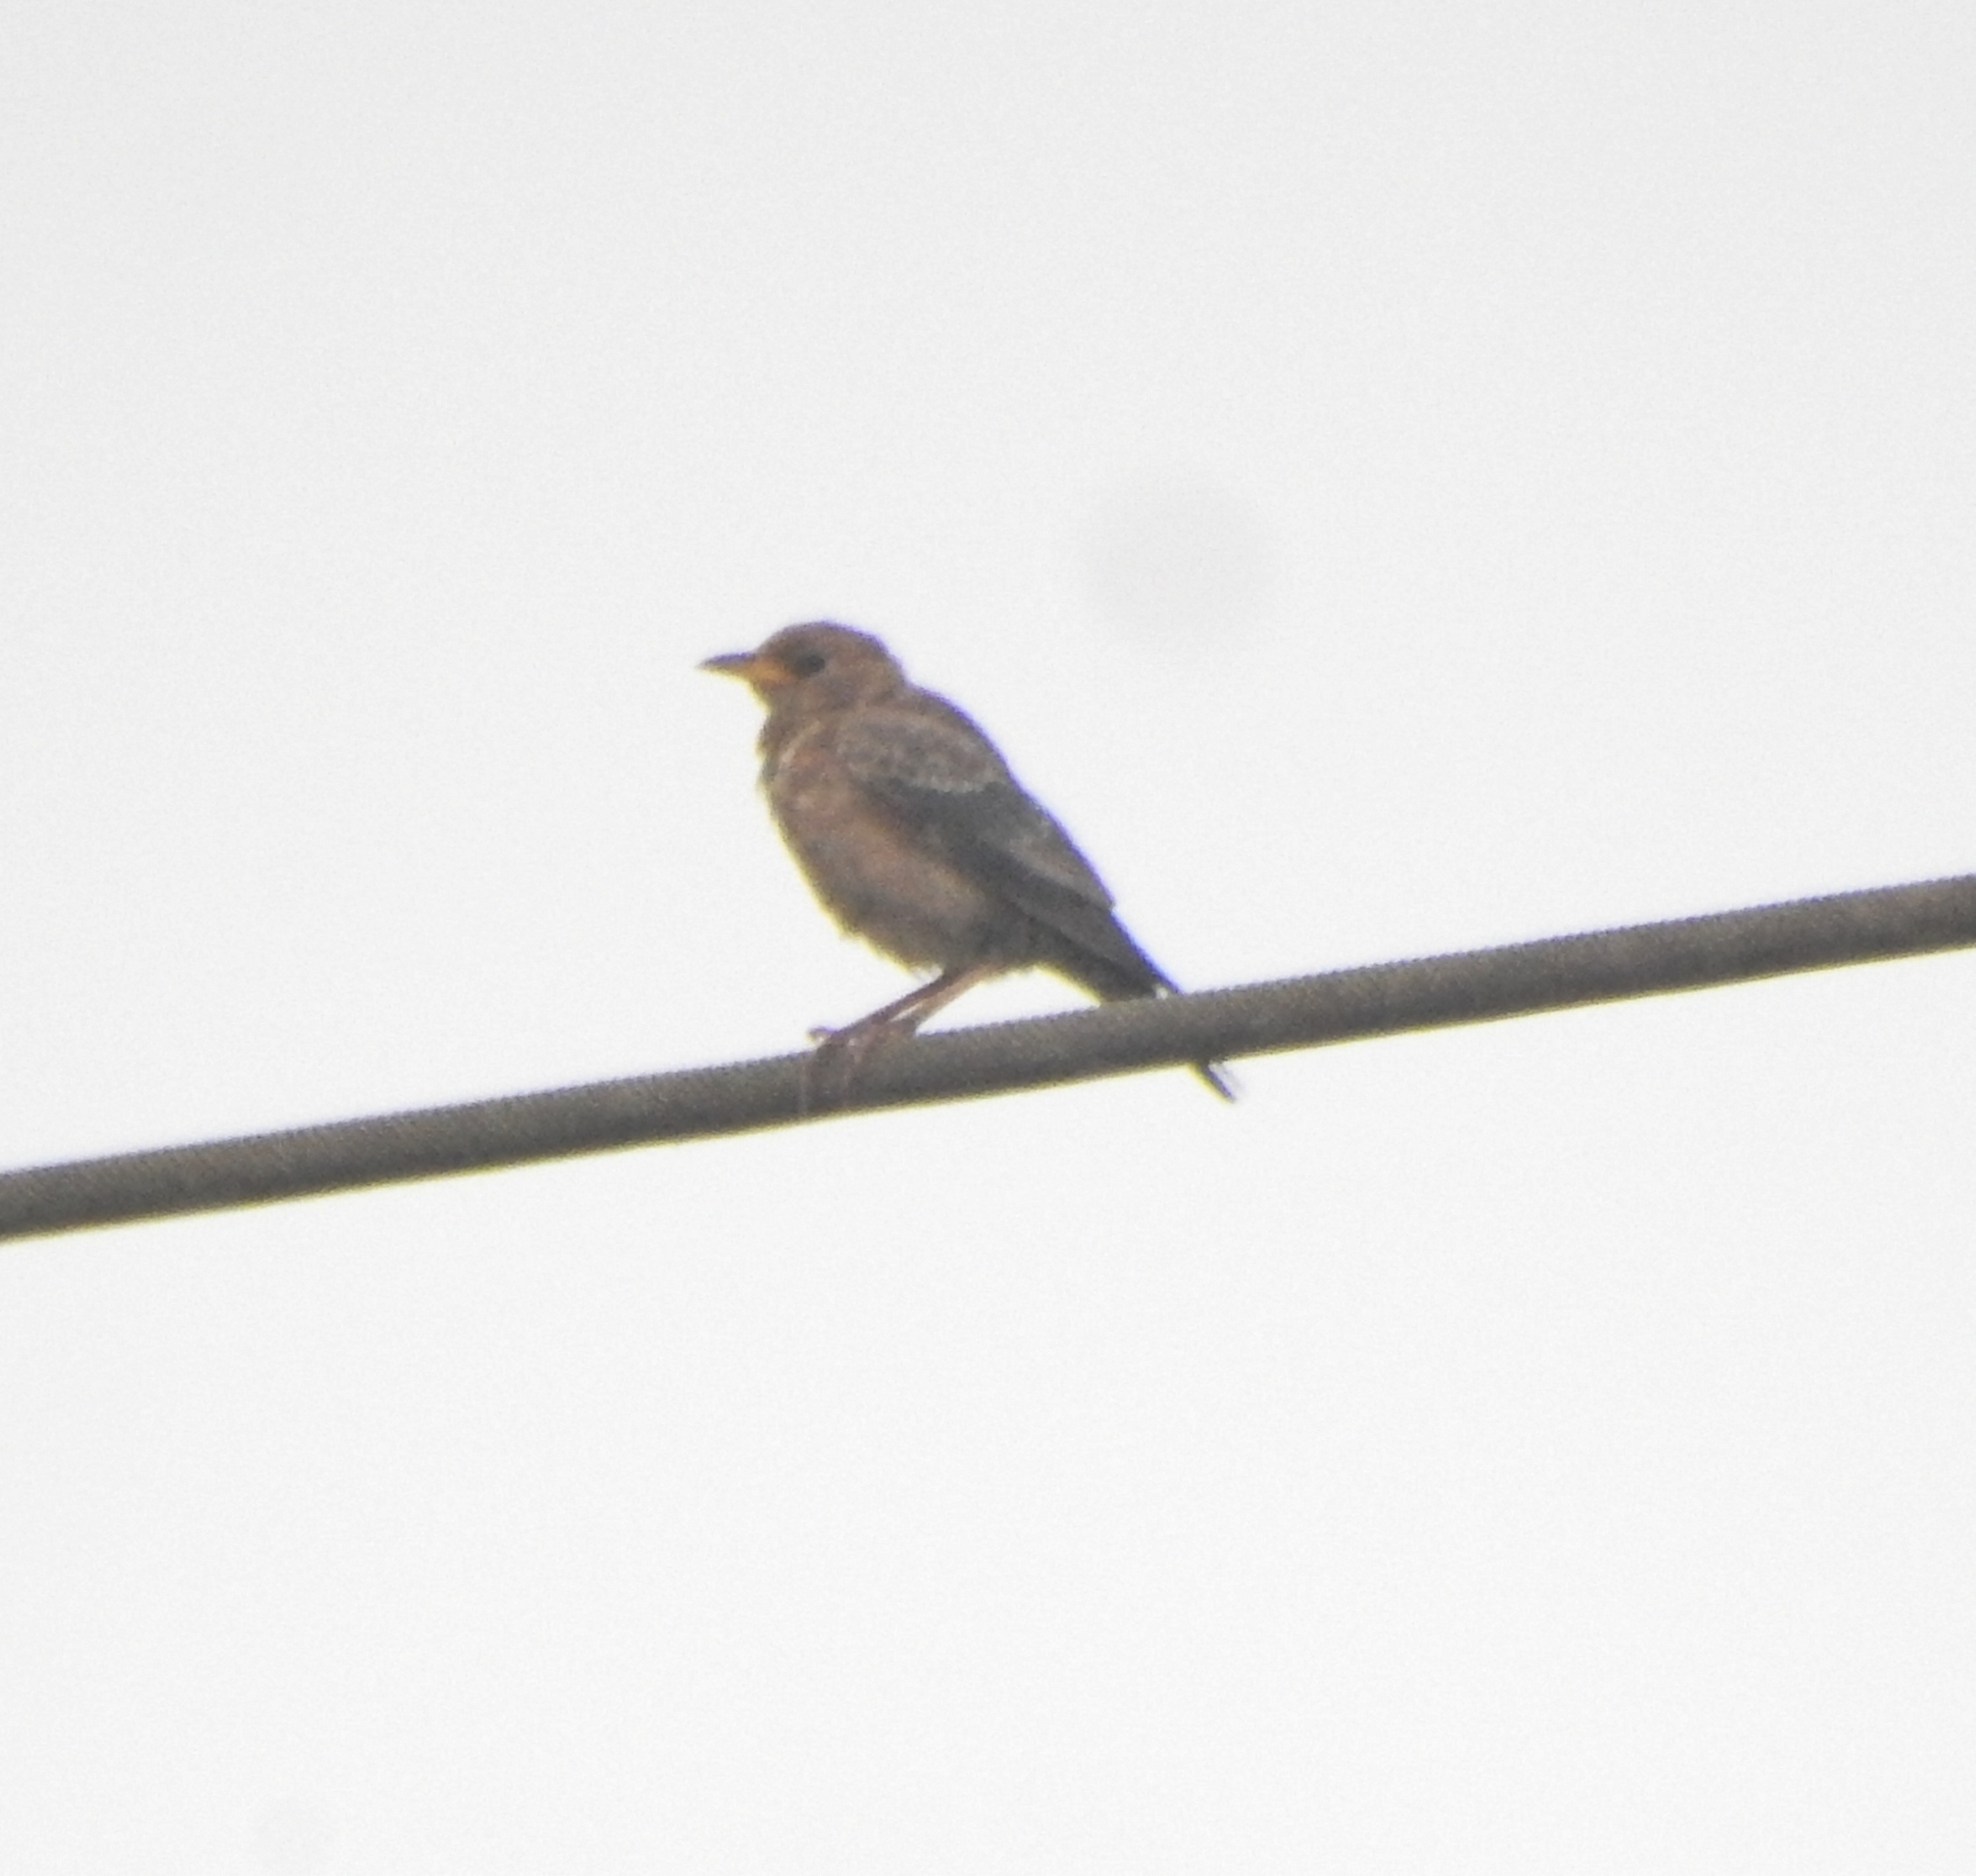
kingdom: Animalia
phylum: Chordata
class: Aves
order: Passeriformes
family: Sturnidae
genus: Pastor
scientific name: Pastor roseus
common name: Rosy starling
